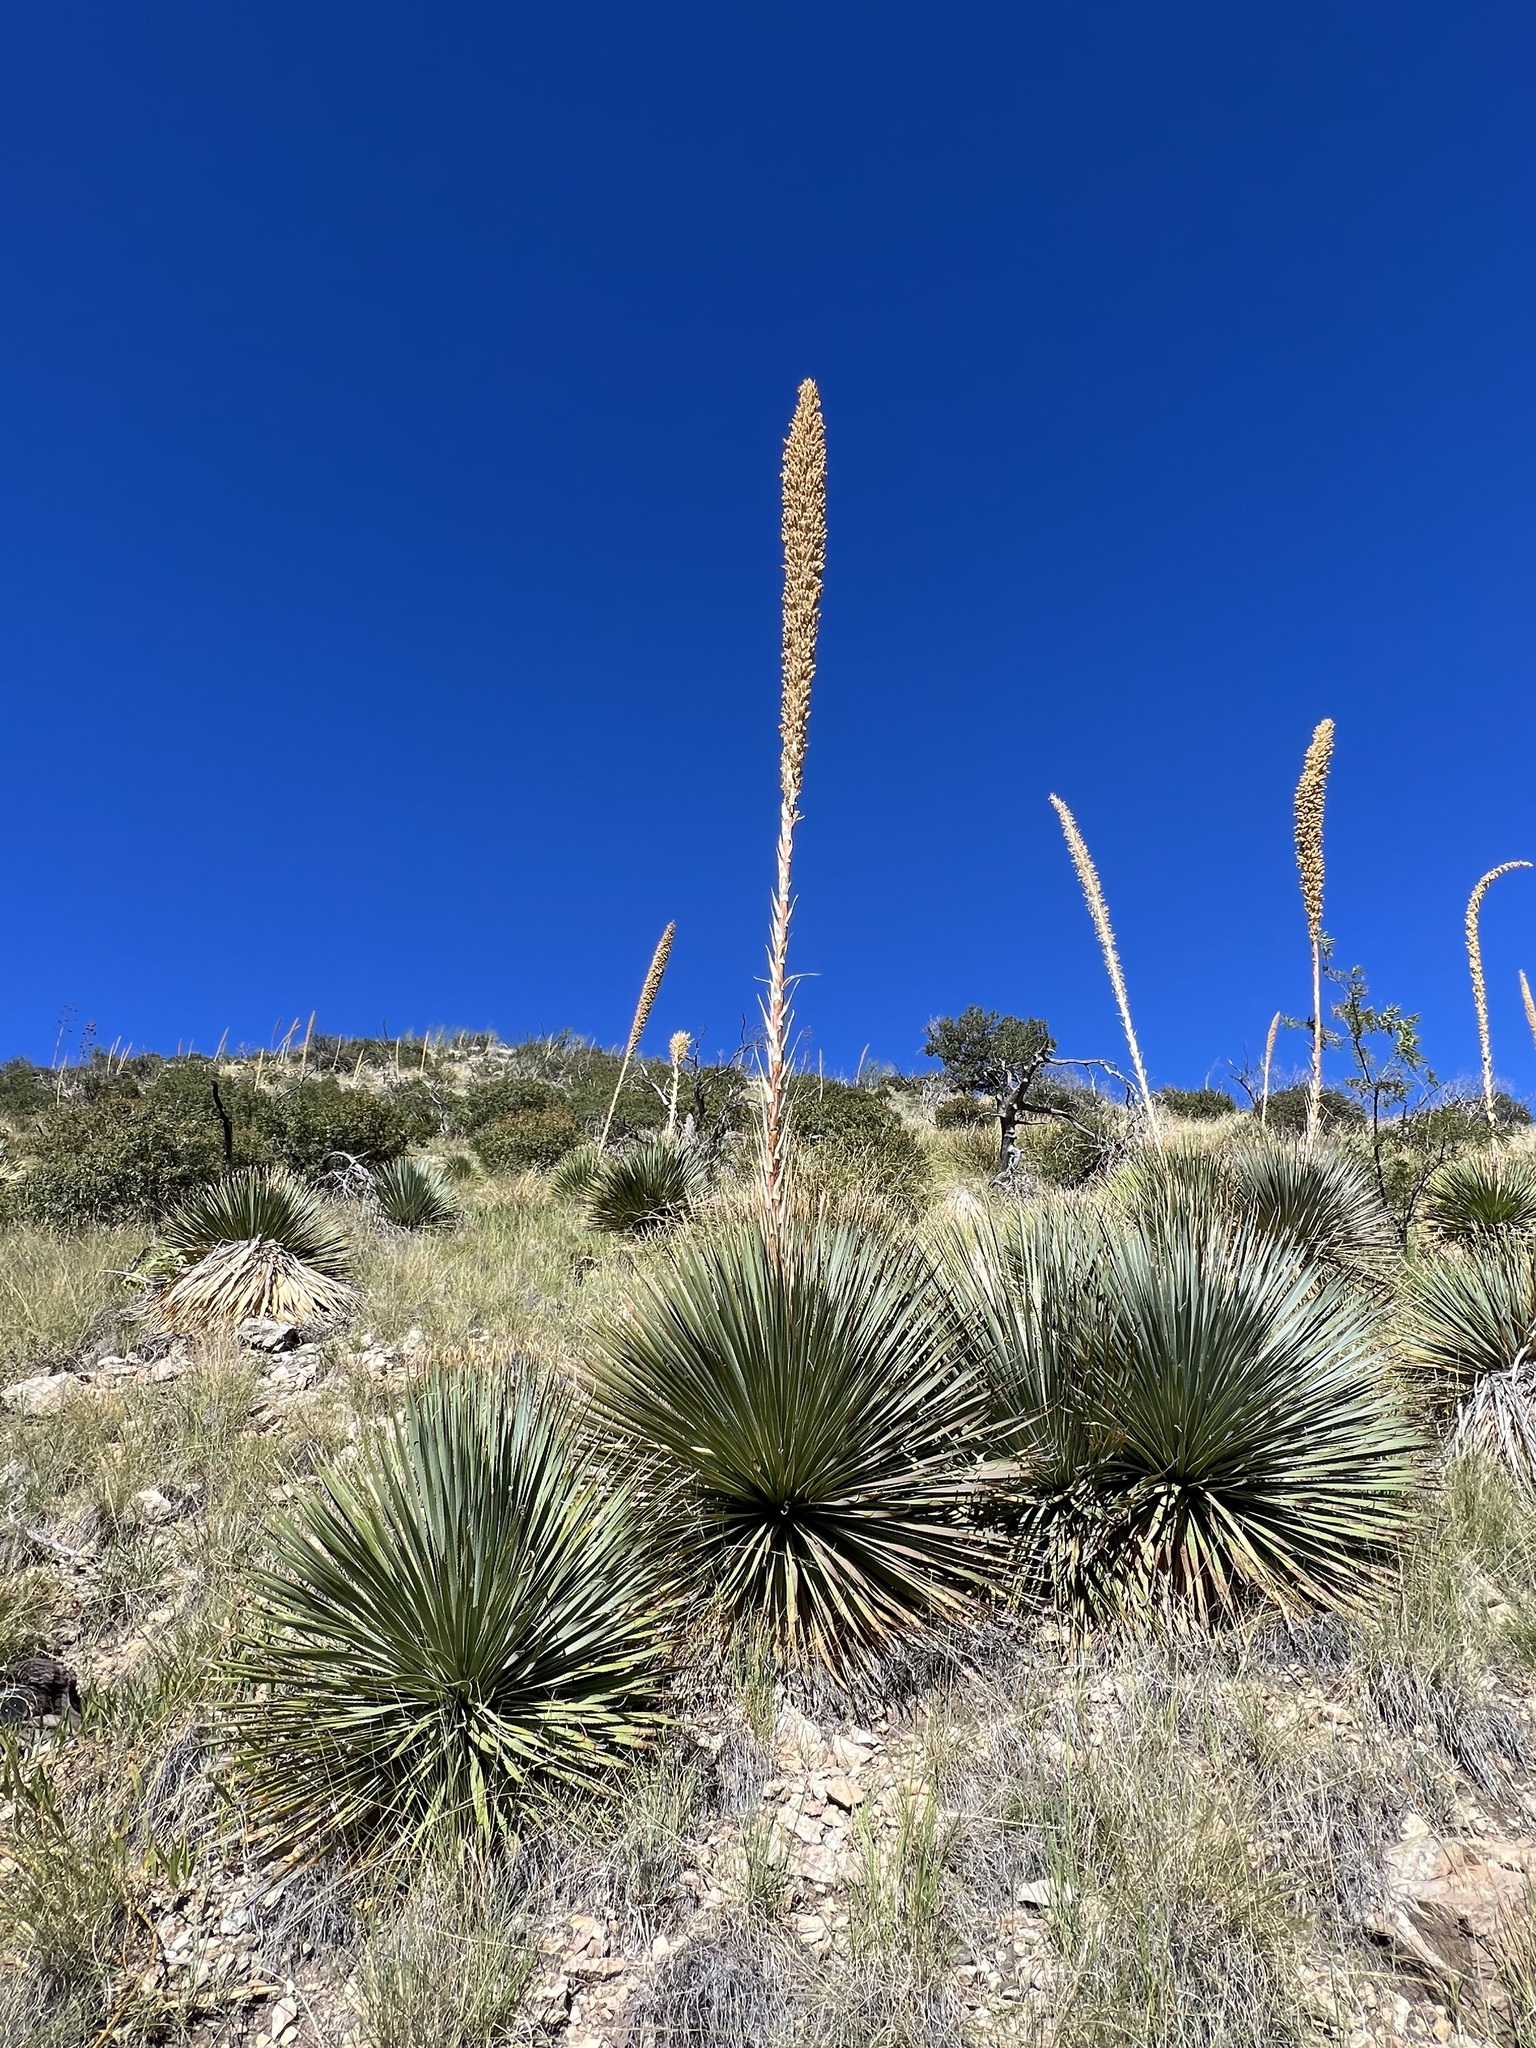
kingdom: Plantae
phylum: Tracheophyta
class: Liliopsida
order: Asparagales
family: Asparagaceae
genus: Dasylirion
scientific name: Dasylirion wheeleri
